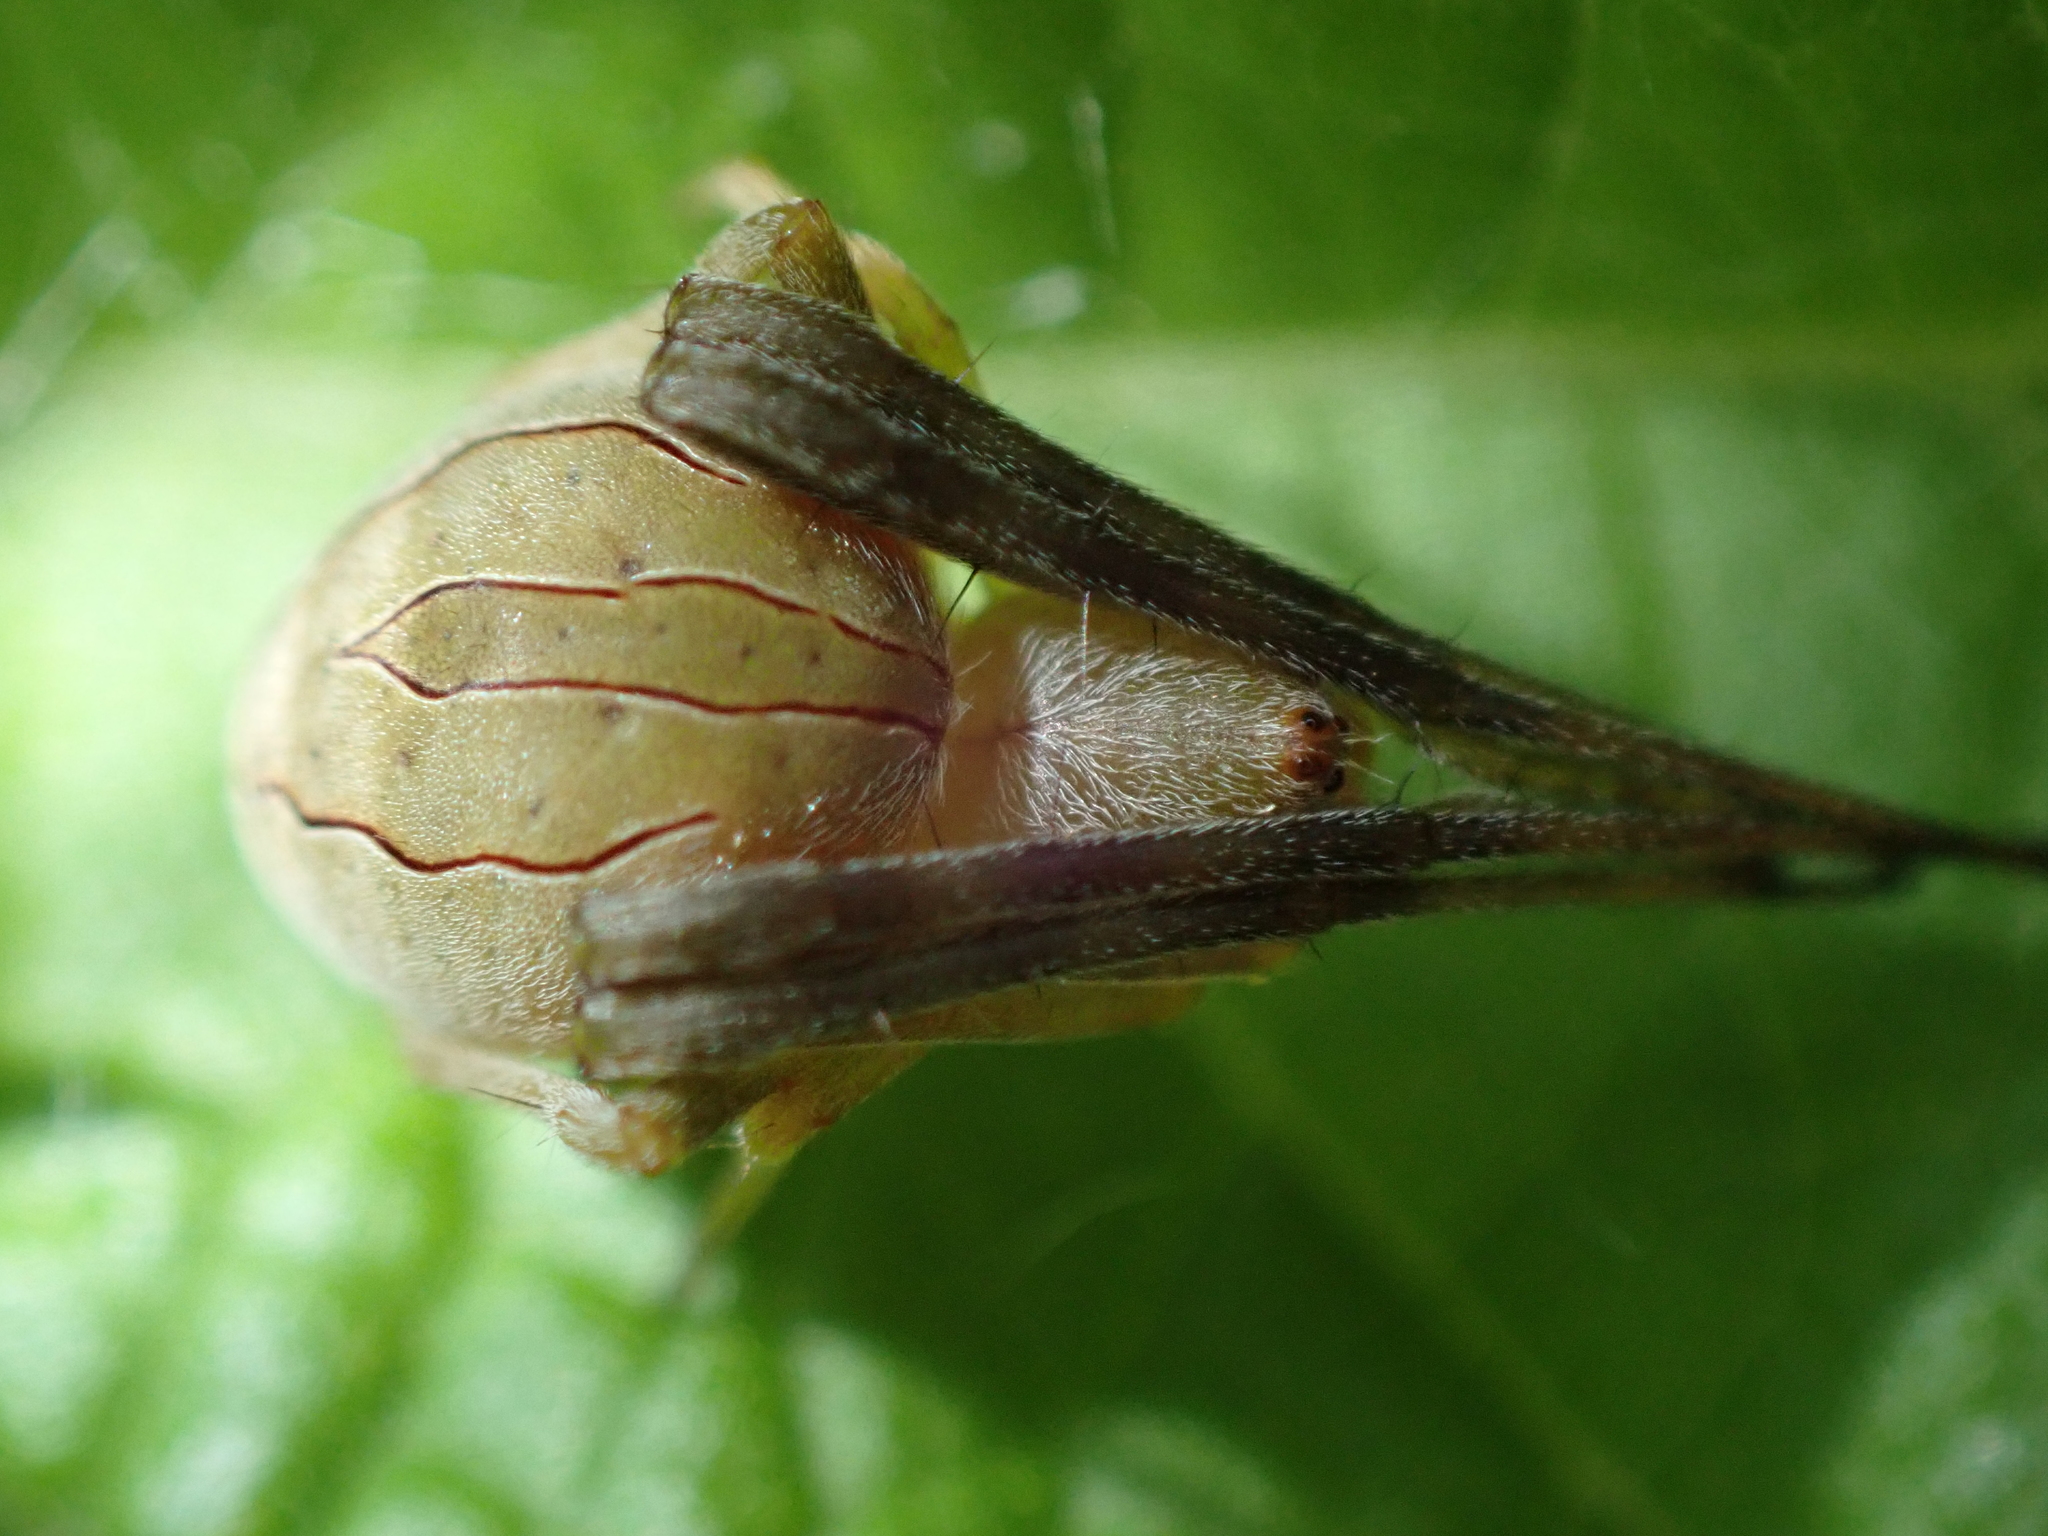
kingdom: Animalia
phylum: Arthropoda
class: Arachnida
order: Araneae
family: Araneidae
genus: Acacesia
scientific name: Acacesia hamata
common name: Orb weavers
